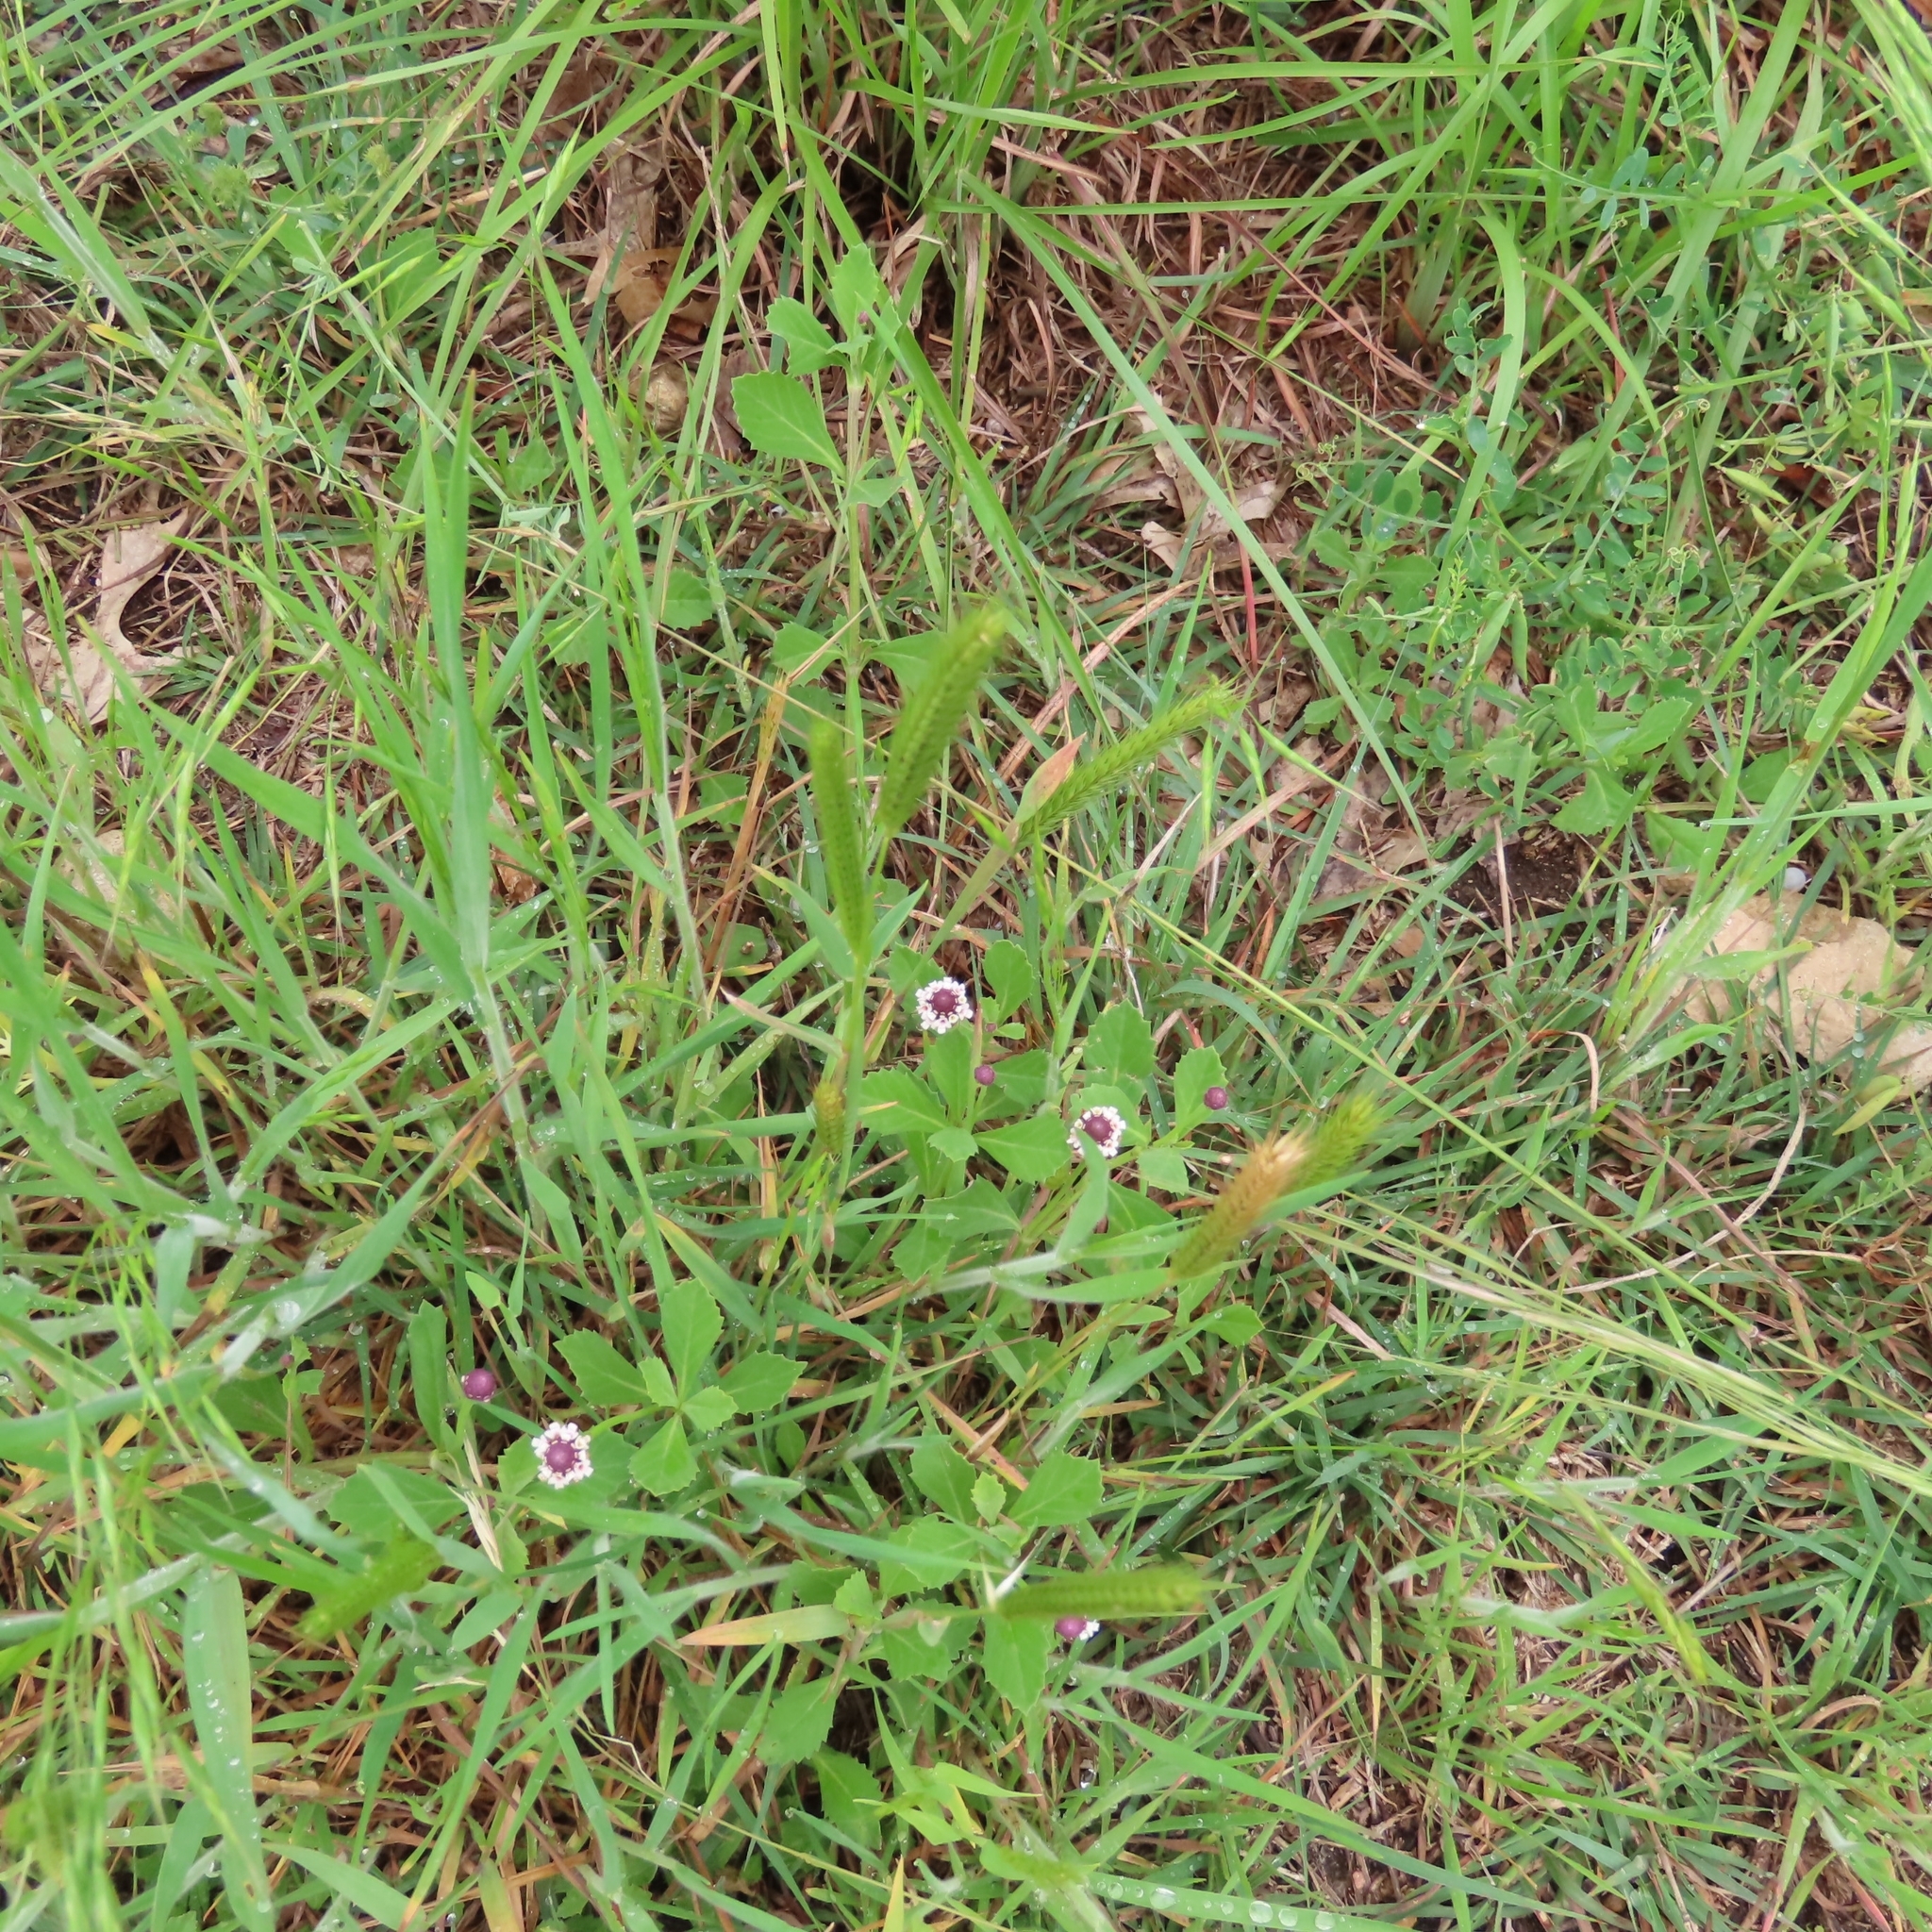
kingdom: Plantae
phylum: Tracheophyta
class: Magnoliopsida
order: Lamiales
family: Verbenaceae
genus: Phyla
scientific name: Phyla nodiflora
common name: Frogfruit
